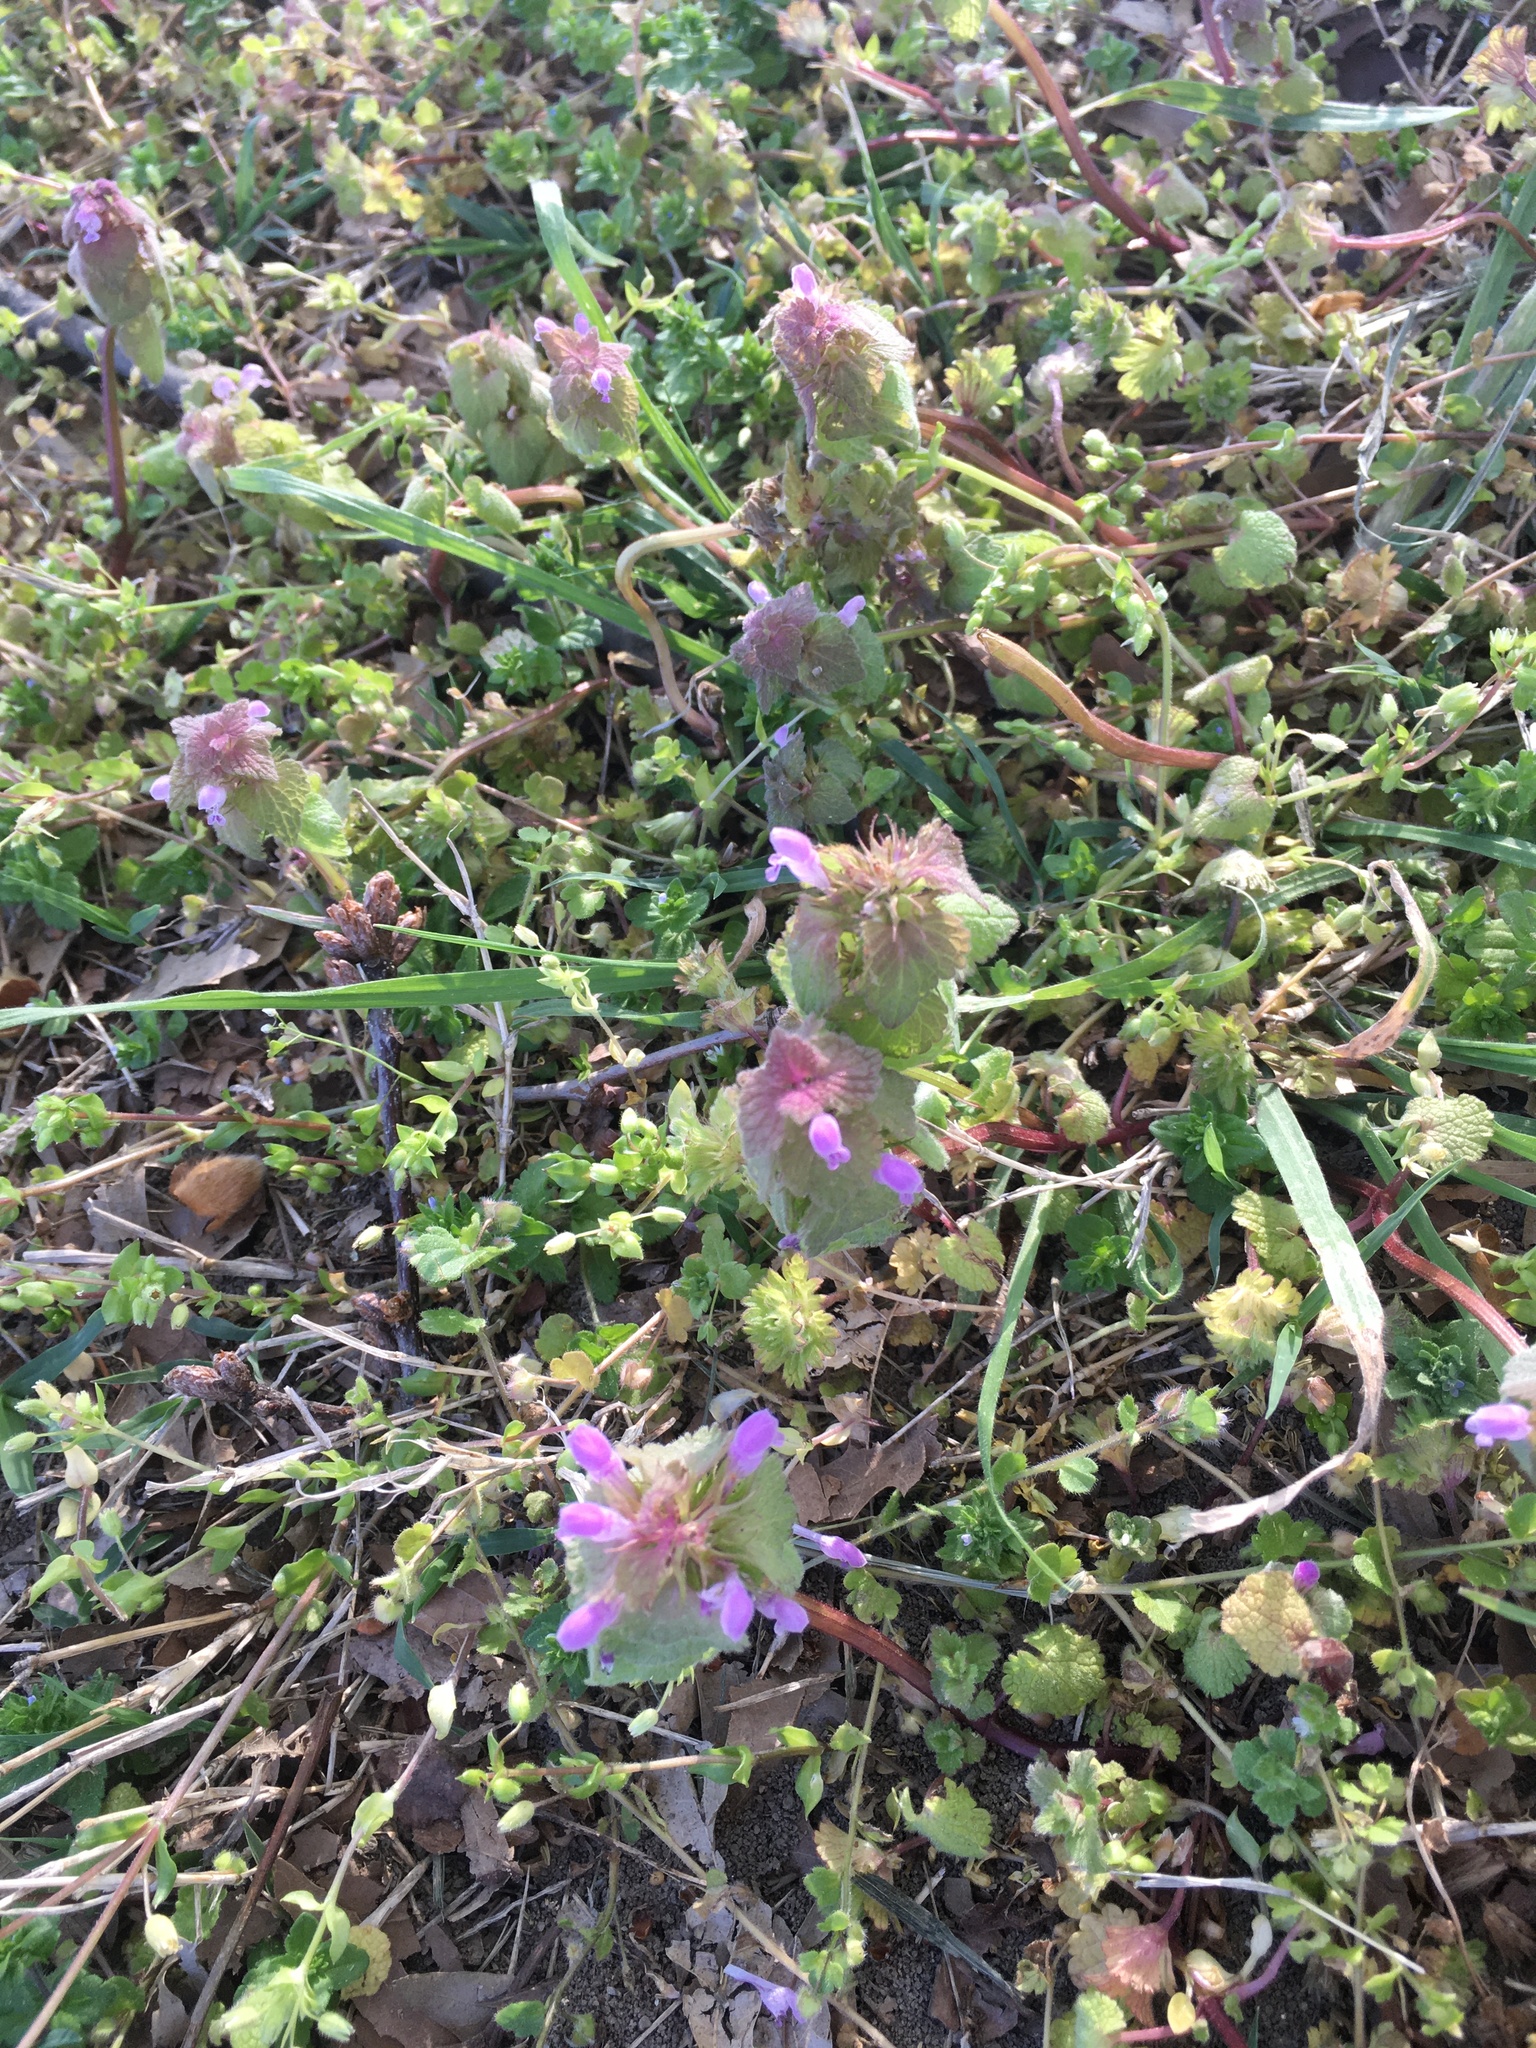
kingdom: Plantae
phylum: Tracheophyta
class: Magnoliopsida
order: Lamiales
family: Lamiaceae
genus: Lamium
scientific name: Lamium purpureum
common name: Red dead-nettle
